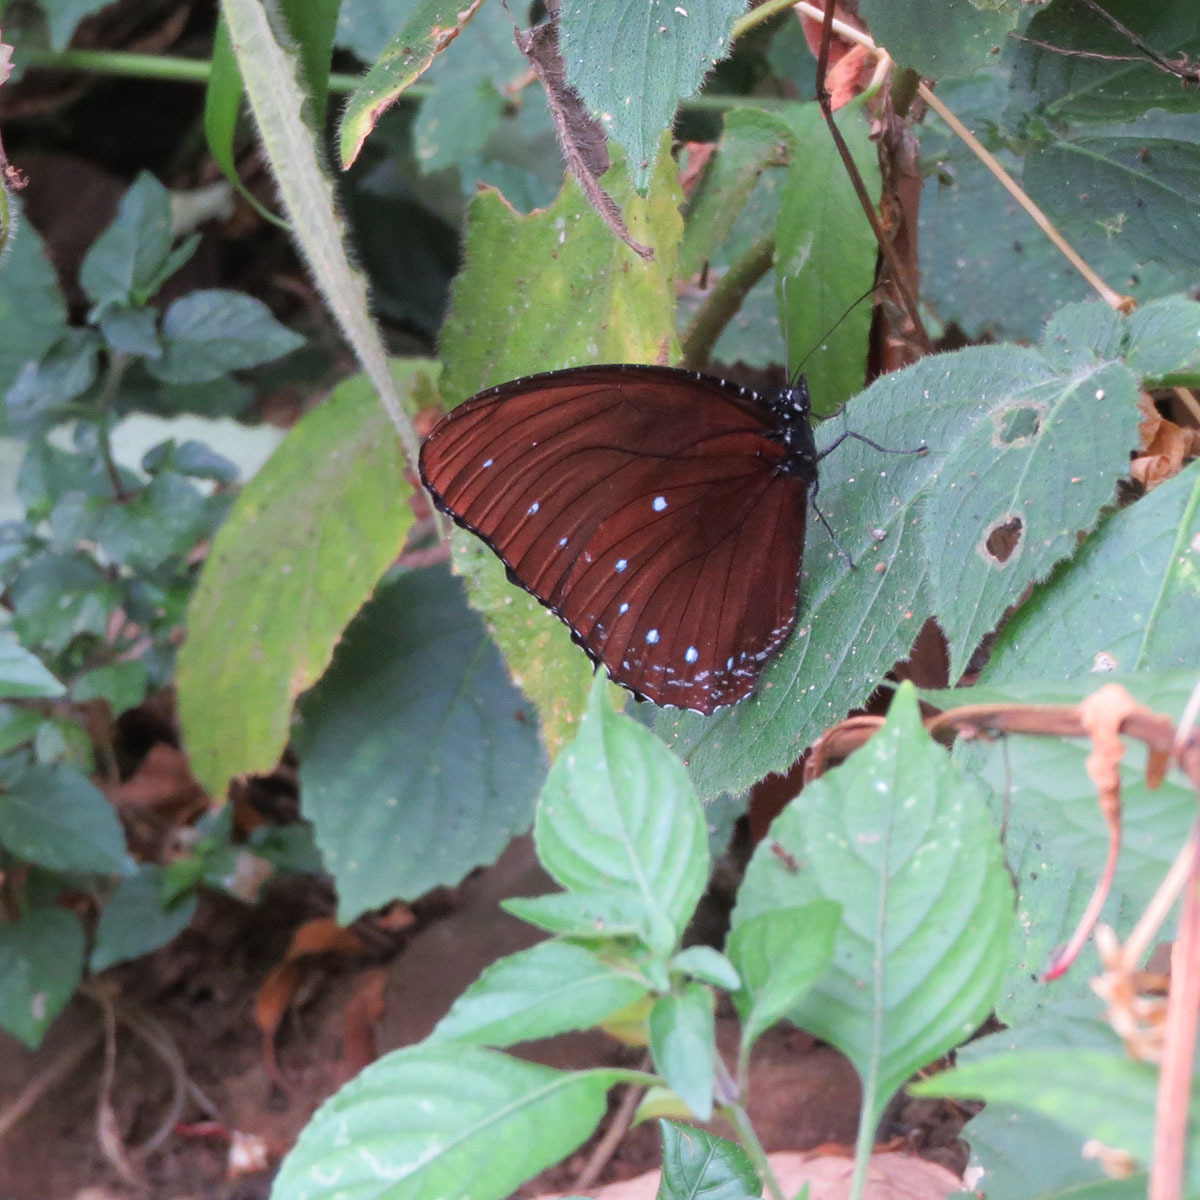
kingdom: Animalia
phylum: Arthropoda
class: Insecta
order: Lepidoptera
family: Nymphalidae
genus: Elymnias
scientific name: Elymnias patna
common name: Blue-striped palmfly
